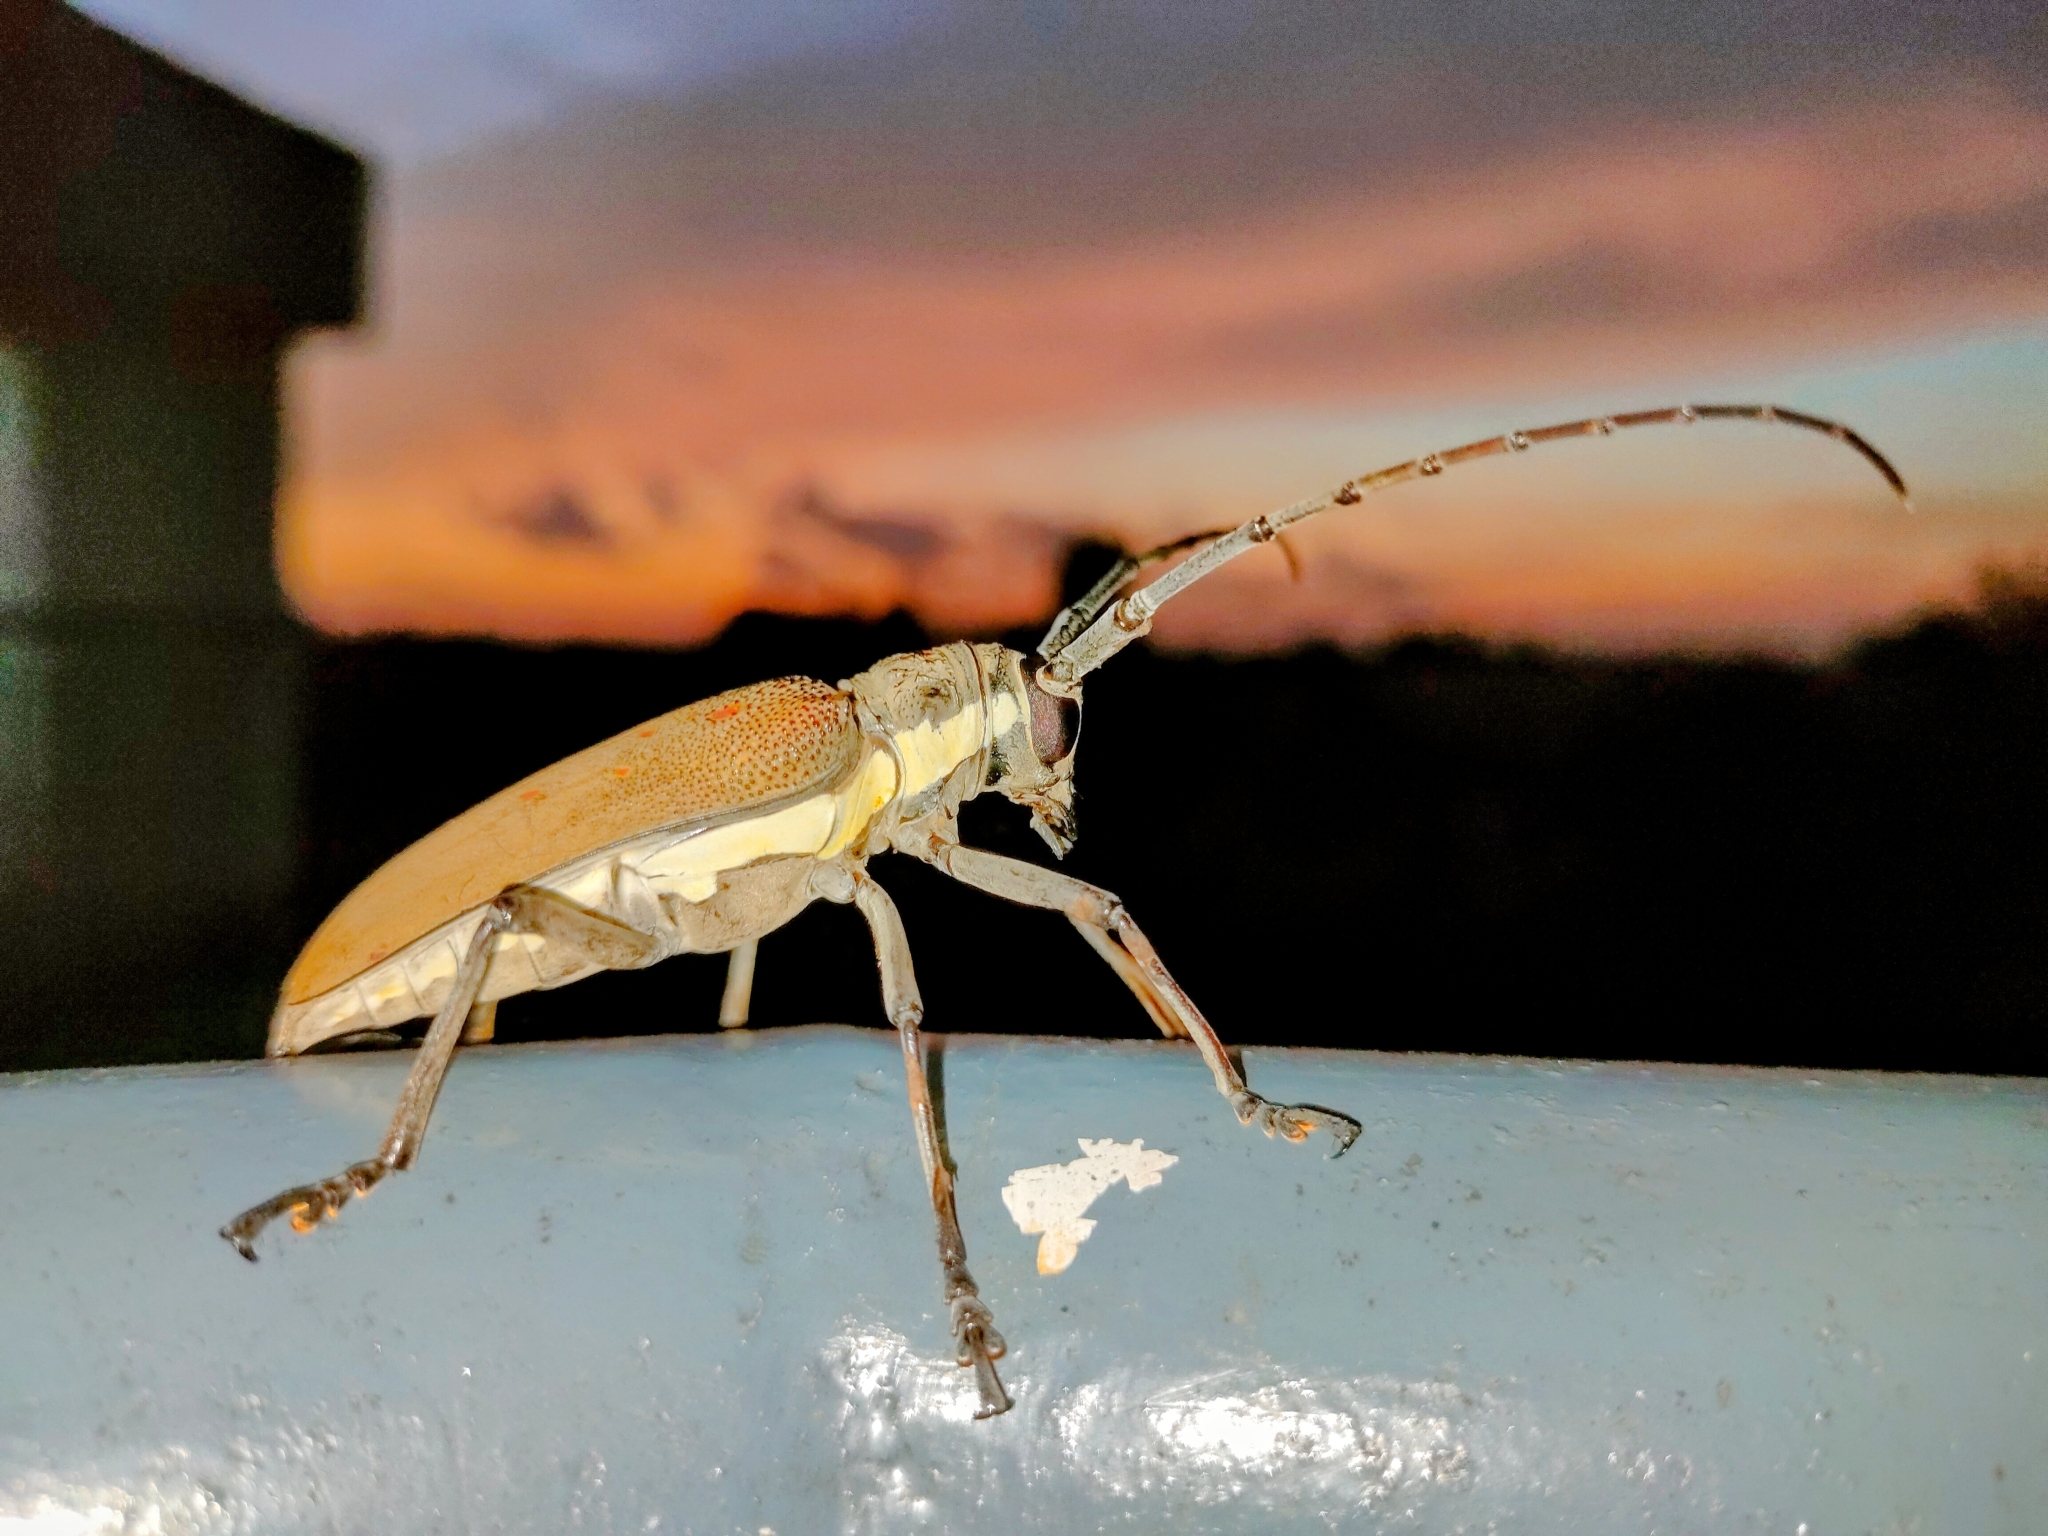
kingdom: Animalia
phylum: Arthropoda
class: Insecta
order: Coleoptera
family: Cerambycidae
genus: Batocera
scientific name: Batocera rufomaculata
